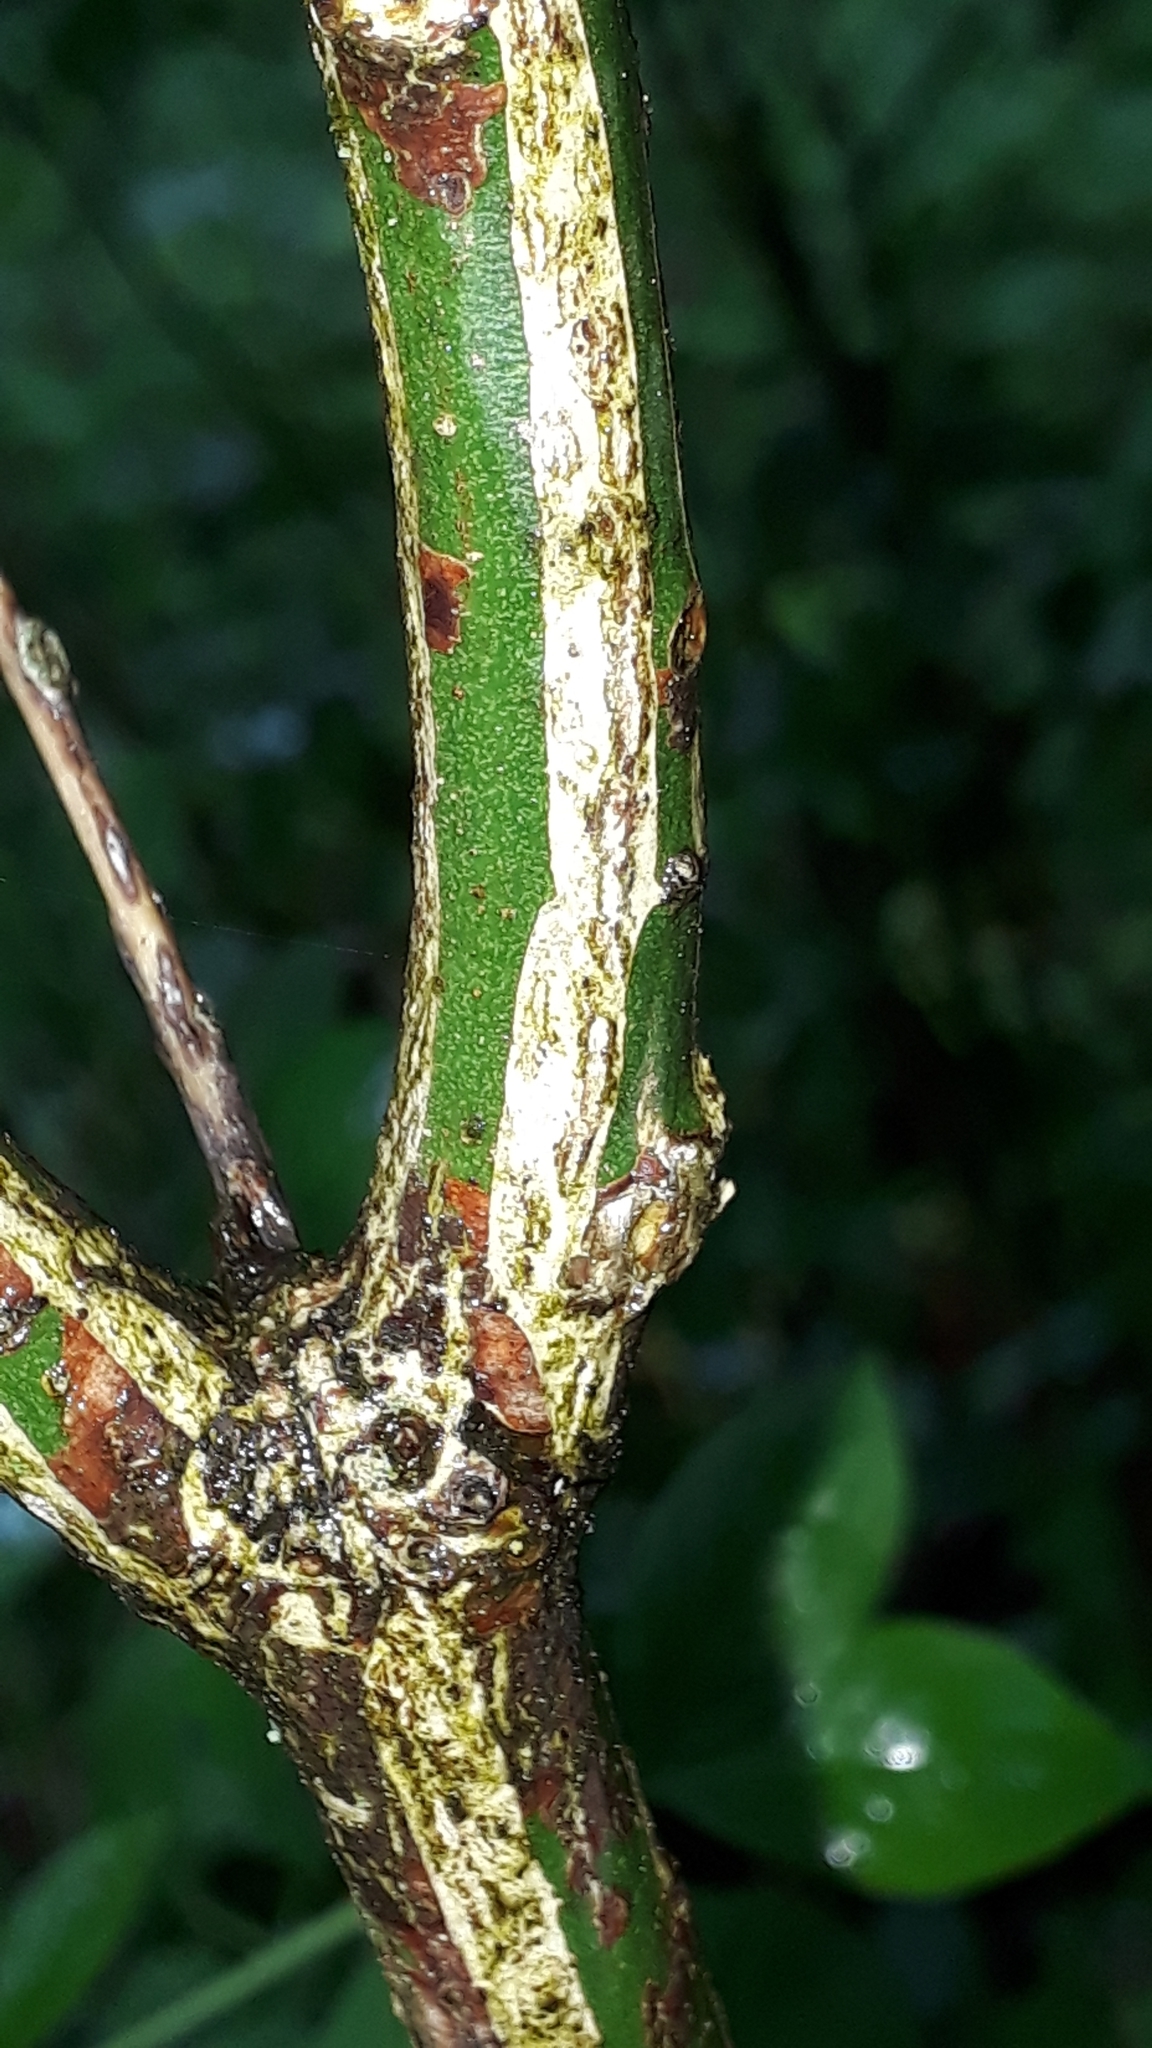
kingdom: Plantae
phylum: Tracheophyta
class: Magnoliopsida
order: Celastrales
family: Celastraceae
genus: Euonymus
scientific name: Euonymus europaeus
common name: Spindle
